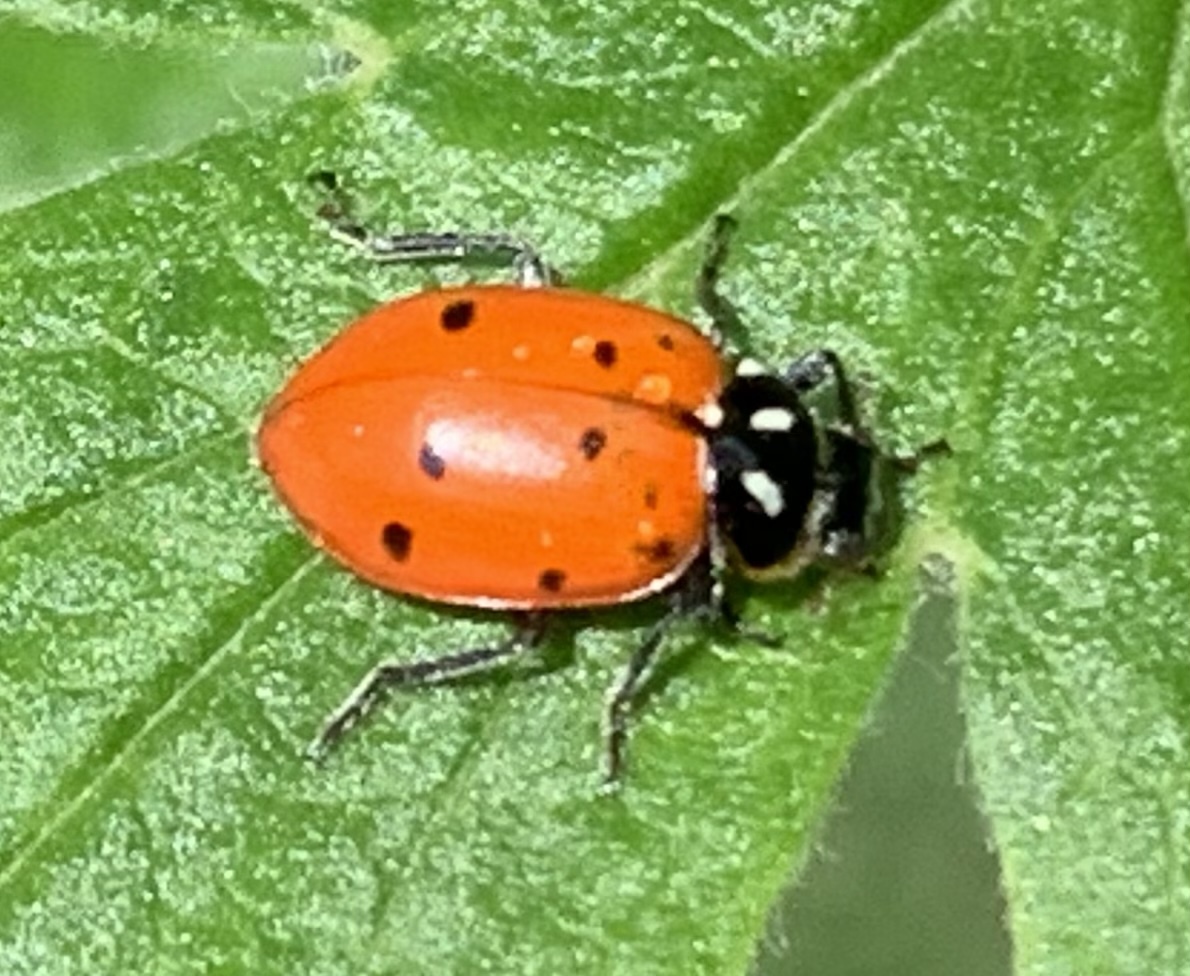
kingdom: Animalia
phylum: Arthropoda
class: Insecta
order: Coleoptera
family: Coccinellidae
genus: Hippodamia
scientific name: Hippodamia convergens
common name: Convergent lady beetle
